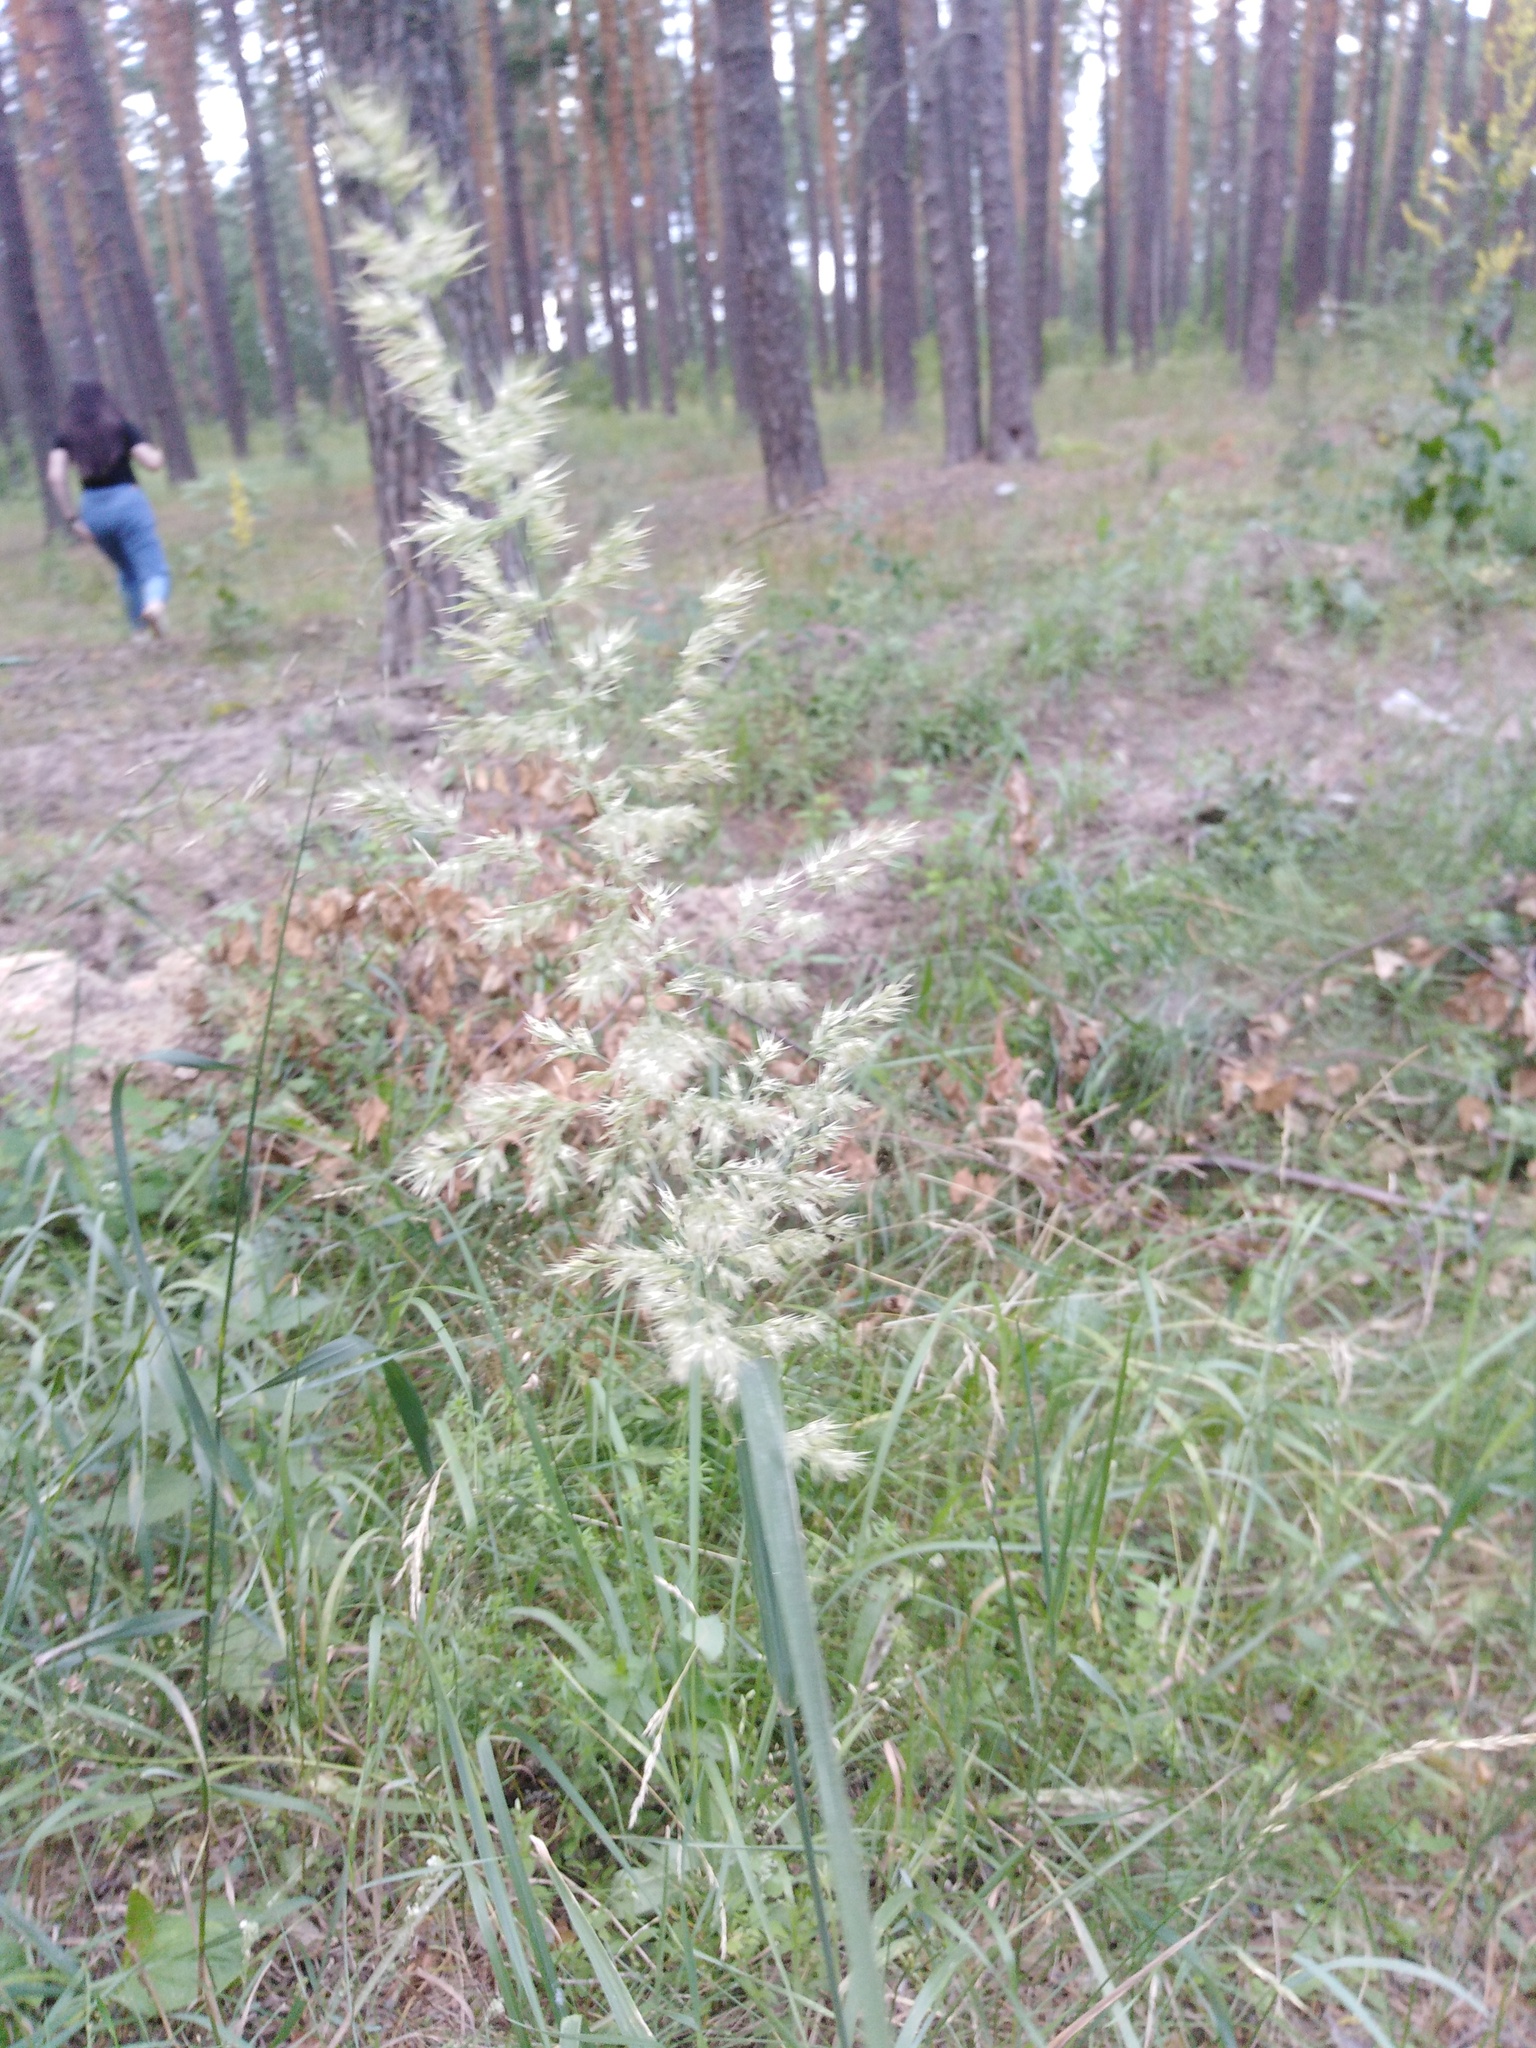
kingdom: Plantae
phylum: Tracheophyta
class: Liliopsida
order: Poales
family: Poaceae
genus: Calamagrostis
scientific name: Calamagrostis epigejos
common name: Wood small-reed
